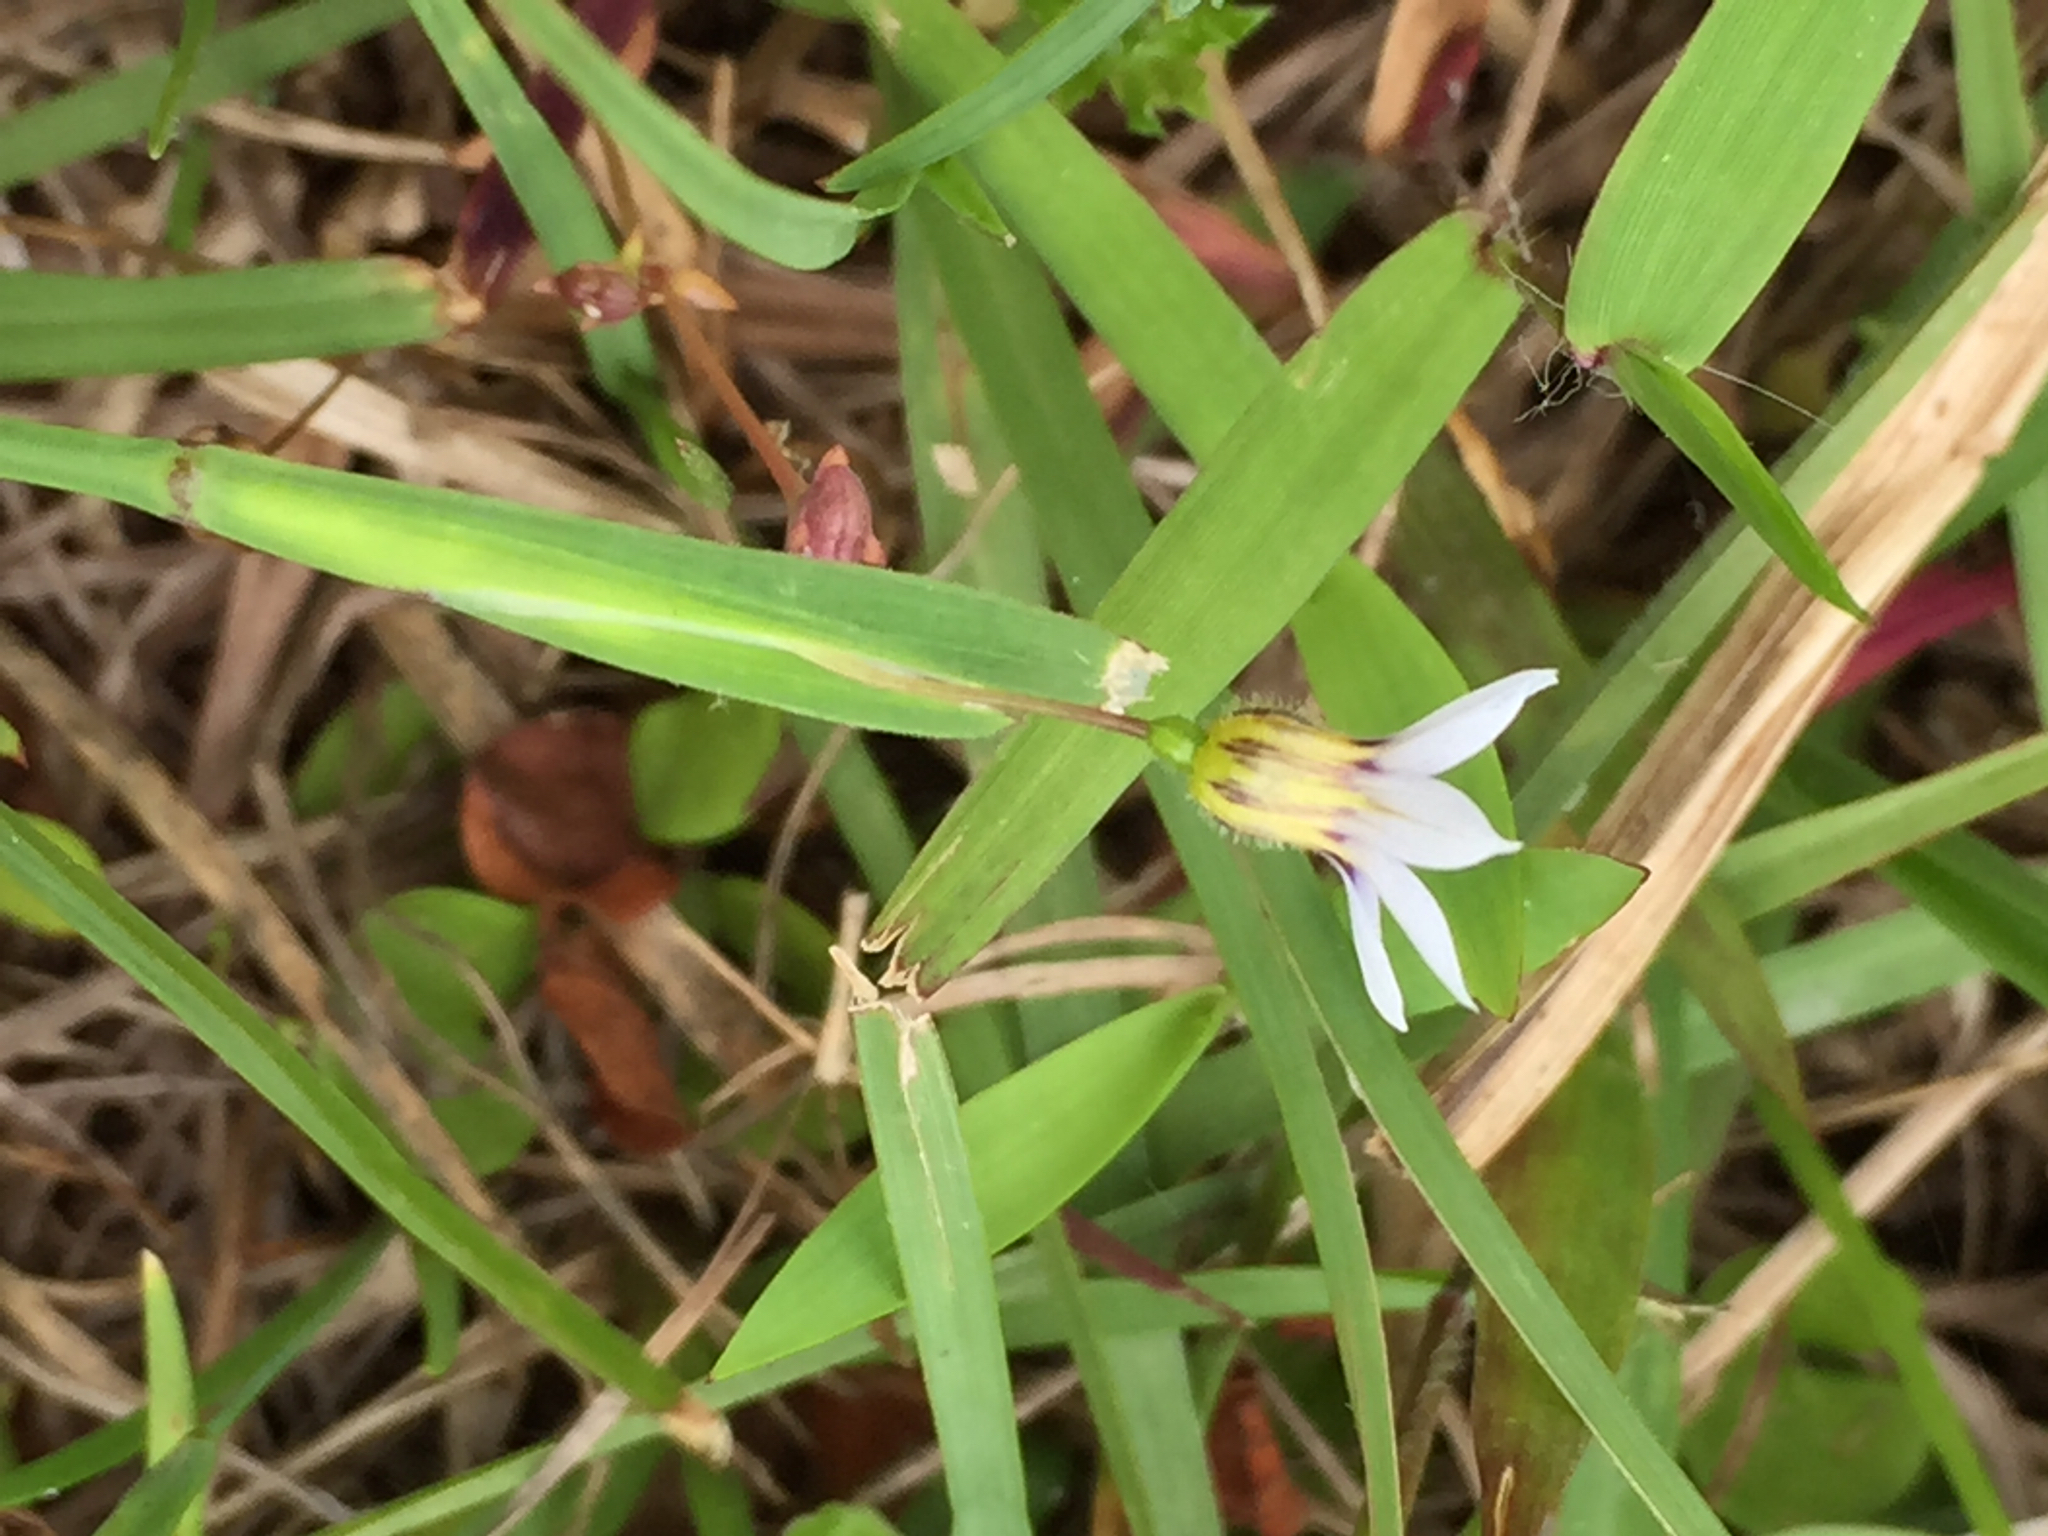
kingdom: Plantae
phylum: Tracheophyta
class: Liliopsida
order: Asparagales
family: Iridaceae
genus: Sisyrinchium
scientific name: Sisyrinchium micranthum
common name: Bermuda pigroot
